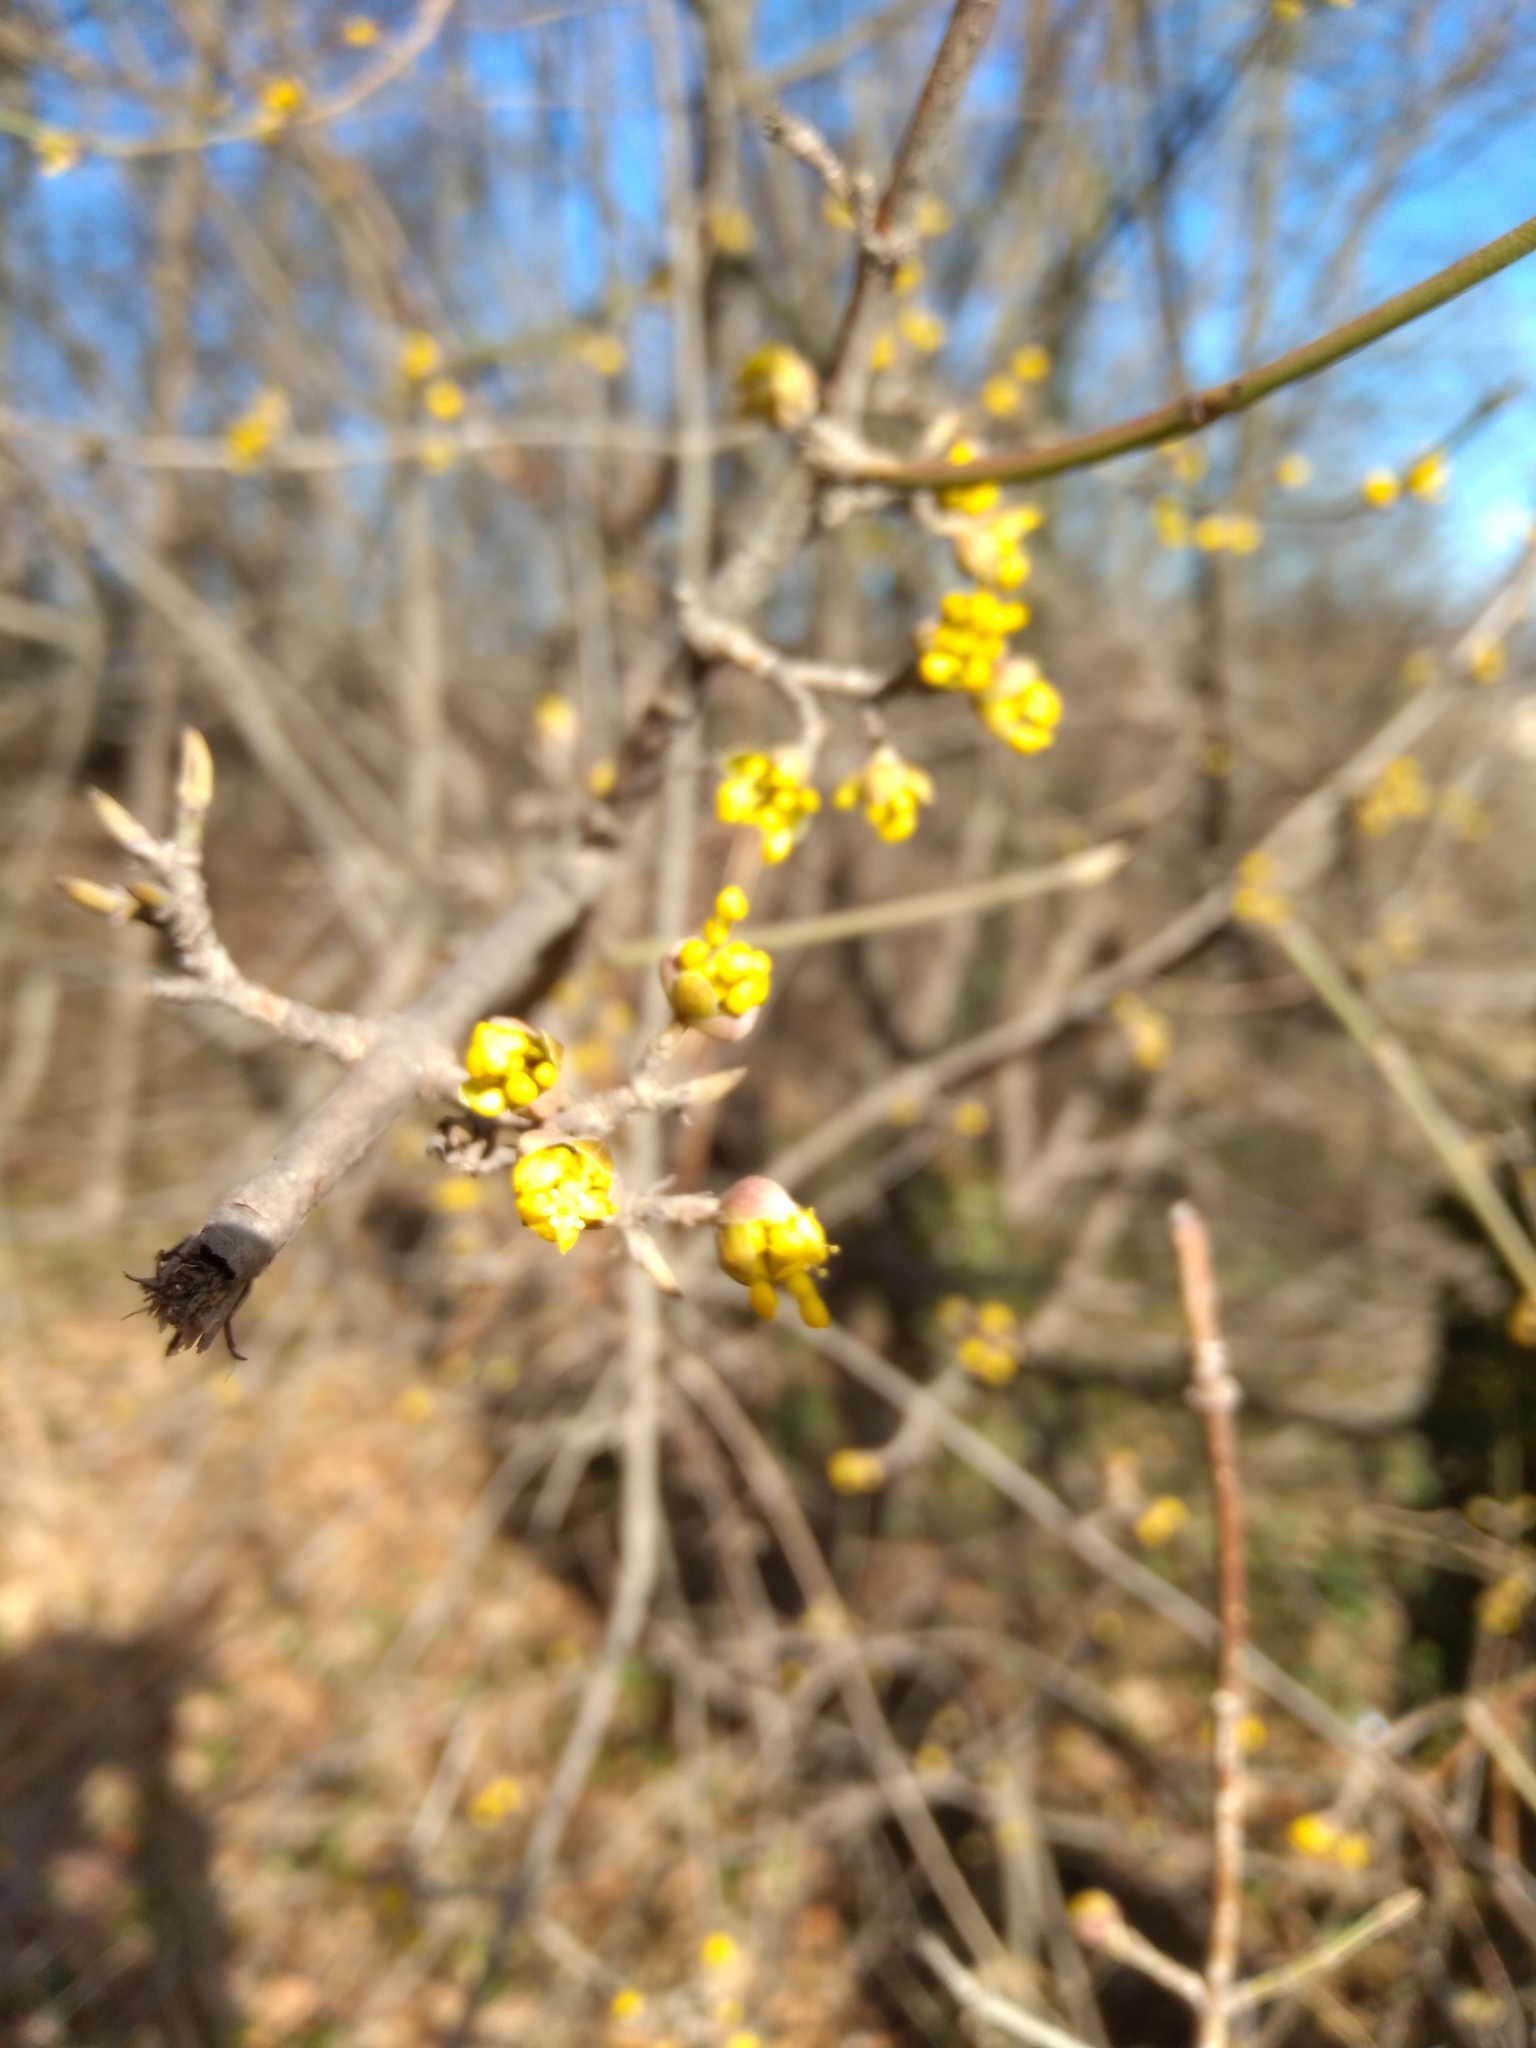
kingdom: Plantae
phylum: Tracheophyta
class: Magnoliopsida
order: Cornales
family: Cornaceae
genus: Cornus
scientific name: Cornus mas
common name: Cornelian-cherry
